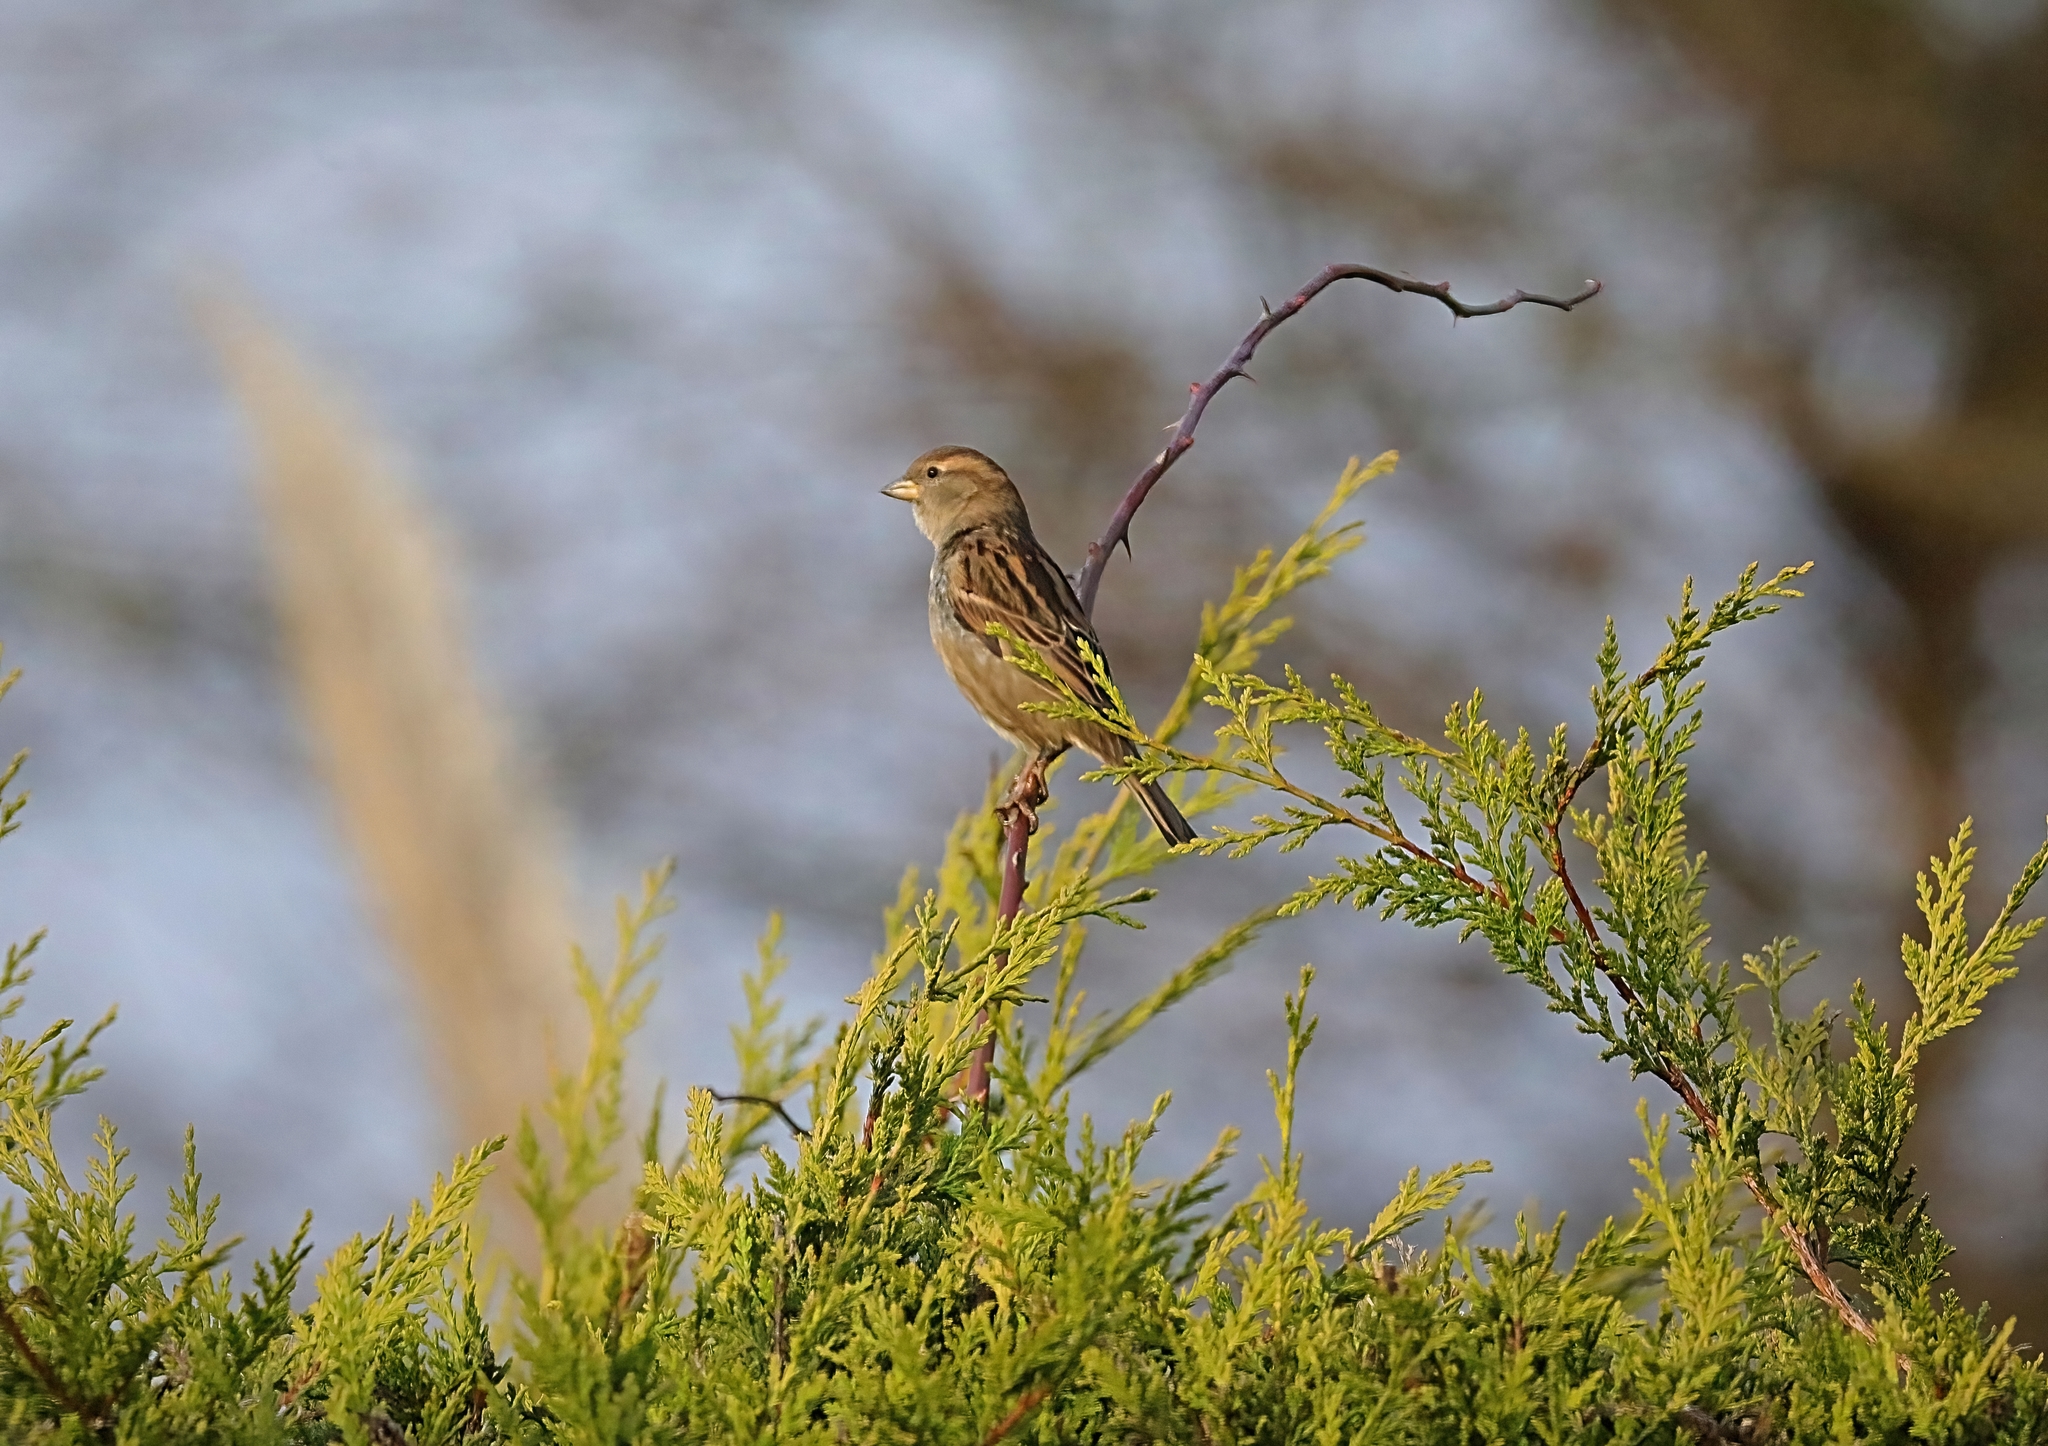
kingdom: Animalia
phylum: Chordata
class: Aves
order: Passeriformes
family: Passeridae
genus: Passer
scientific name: Passer domesticus
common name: House sparrow
